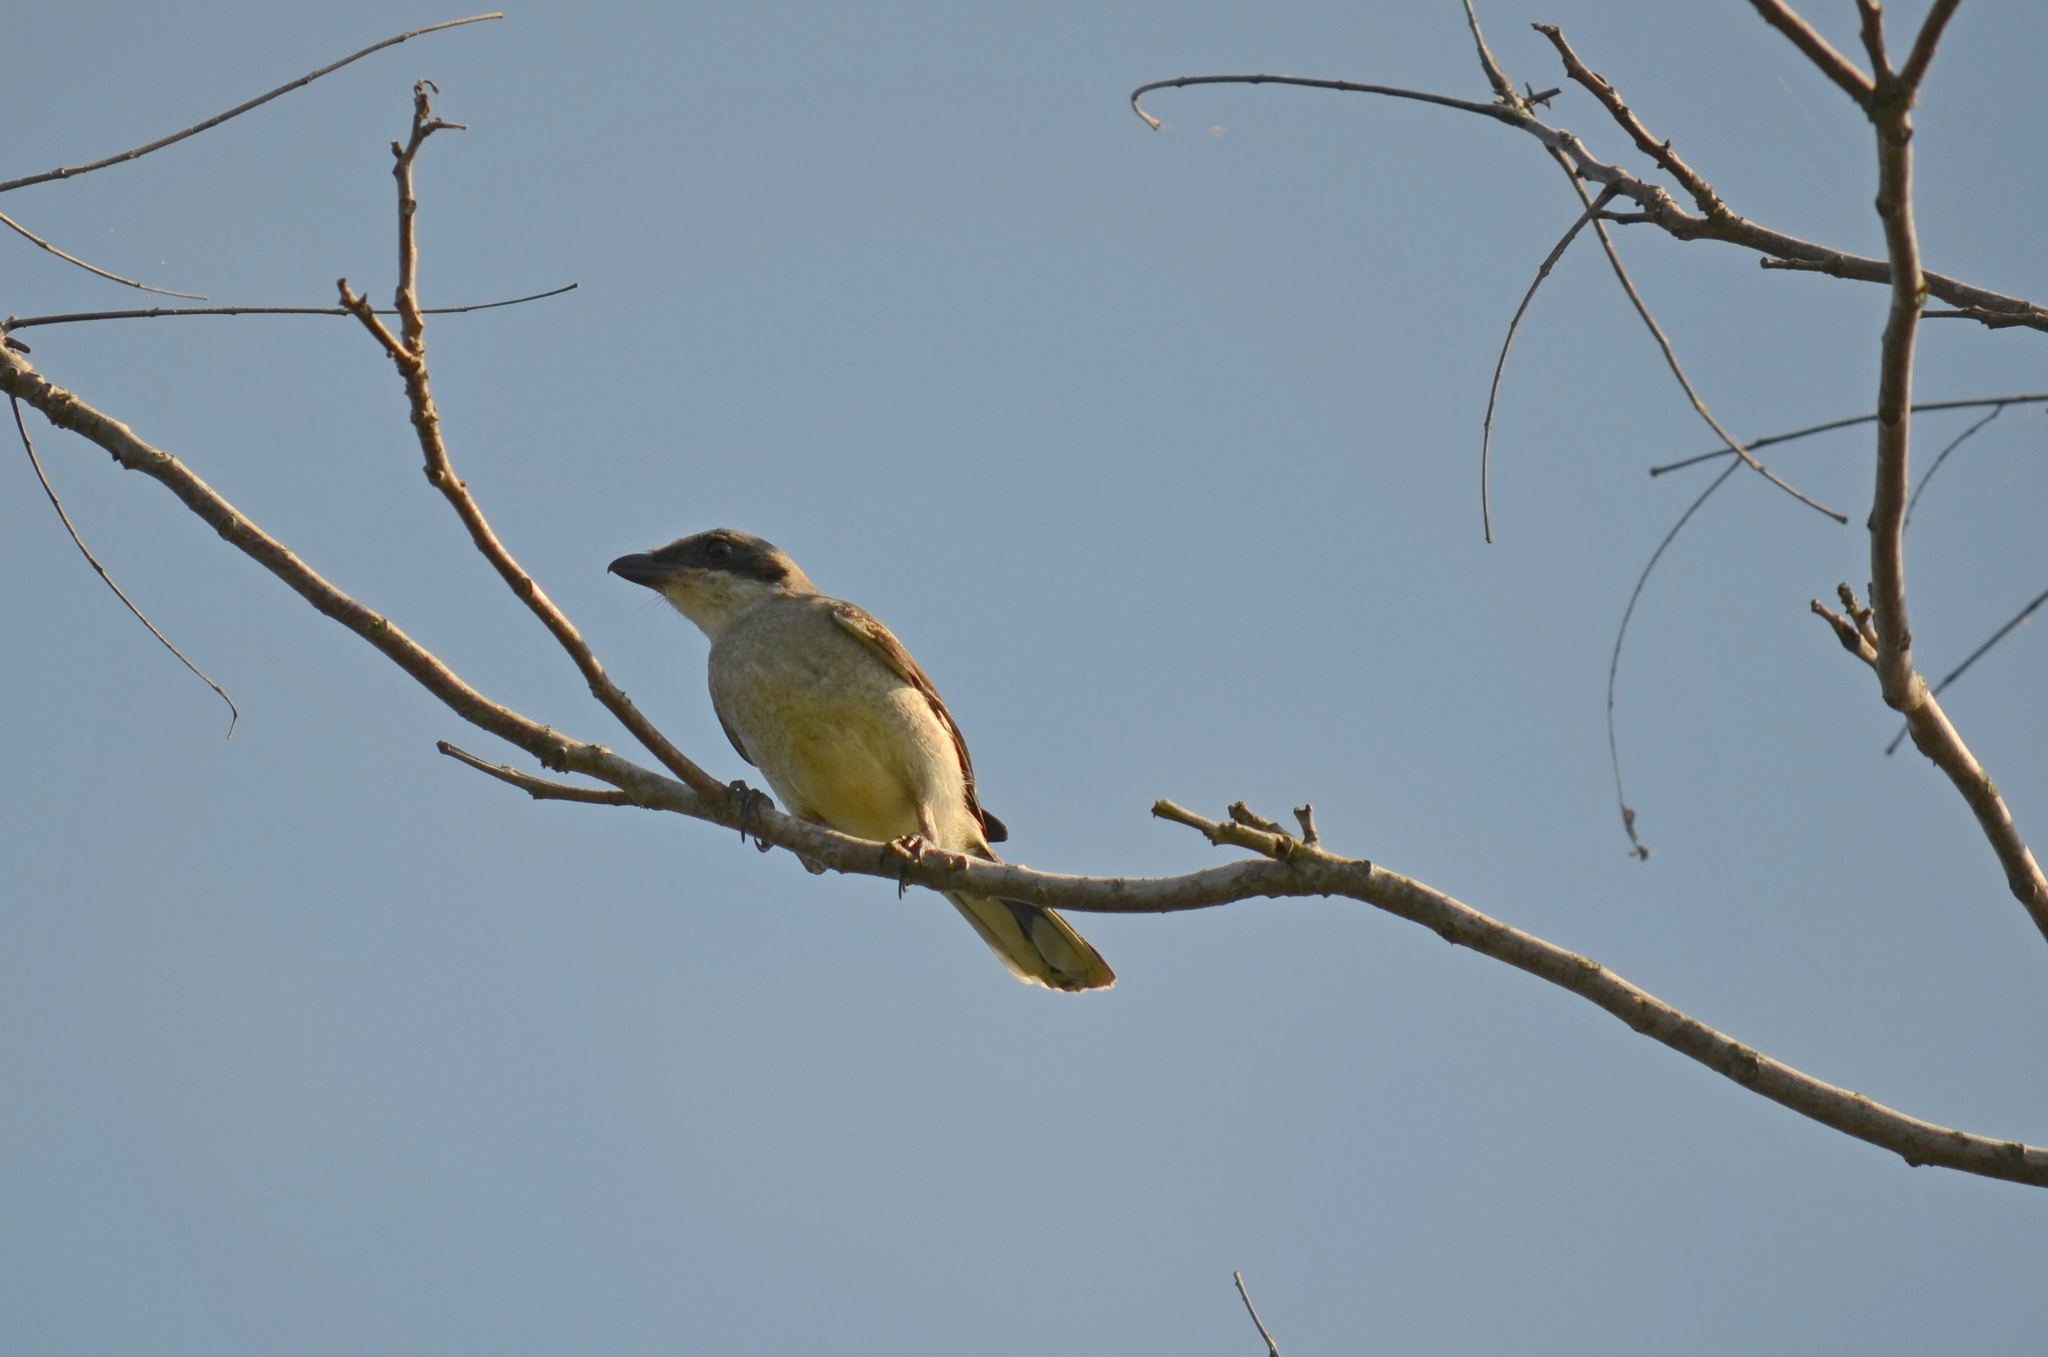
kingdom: Animalia
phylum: Chordata
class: Aves
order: Passeriformes
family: Laniidae
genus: Lanius
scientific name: Lanius ludovicianus
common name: Loggerhead shrike
